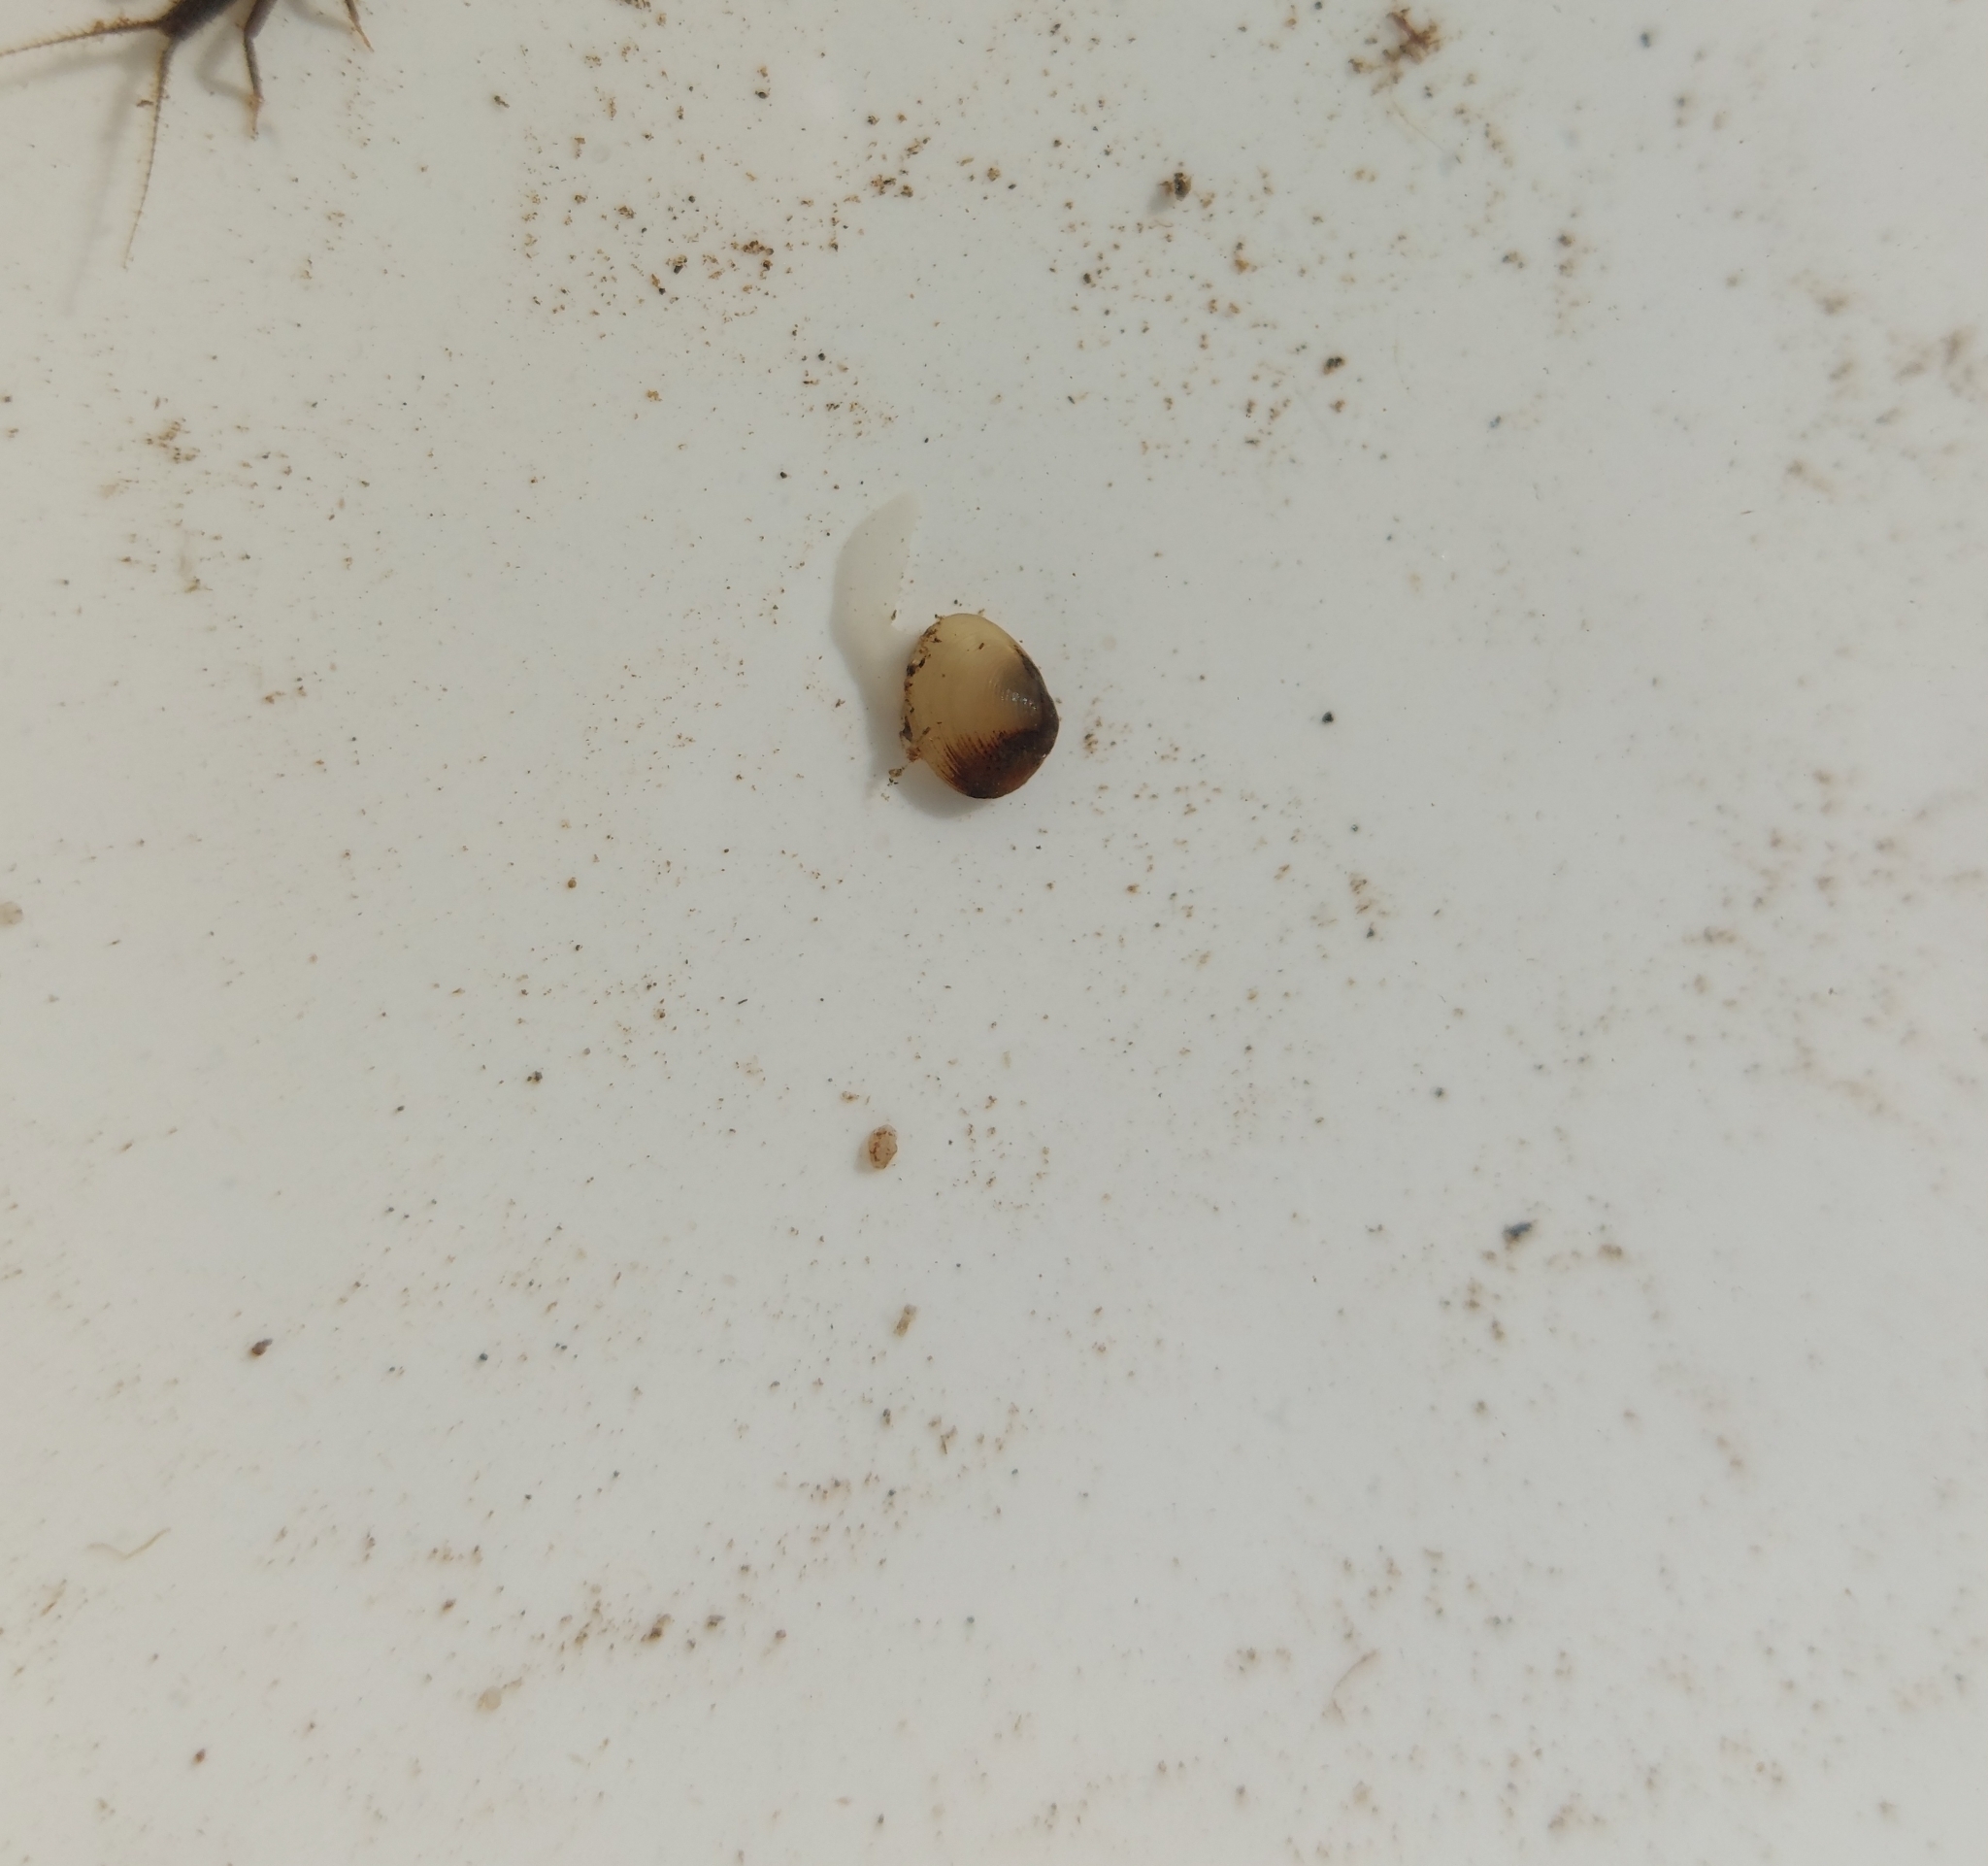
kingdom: Animalia
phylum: Mollusca
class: Bivalvia
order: Sphaeriida
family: Sphaeriidae
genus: Pisidium
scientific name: Pisidium amnicum
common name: Greater european peaclam
